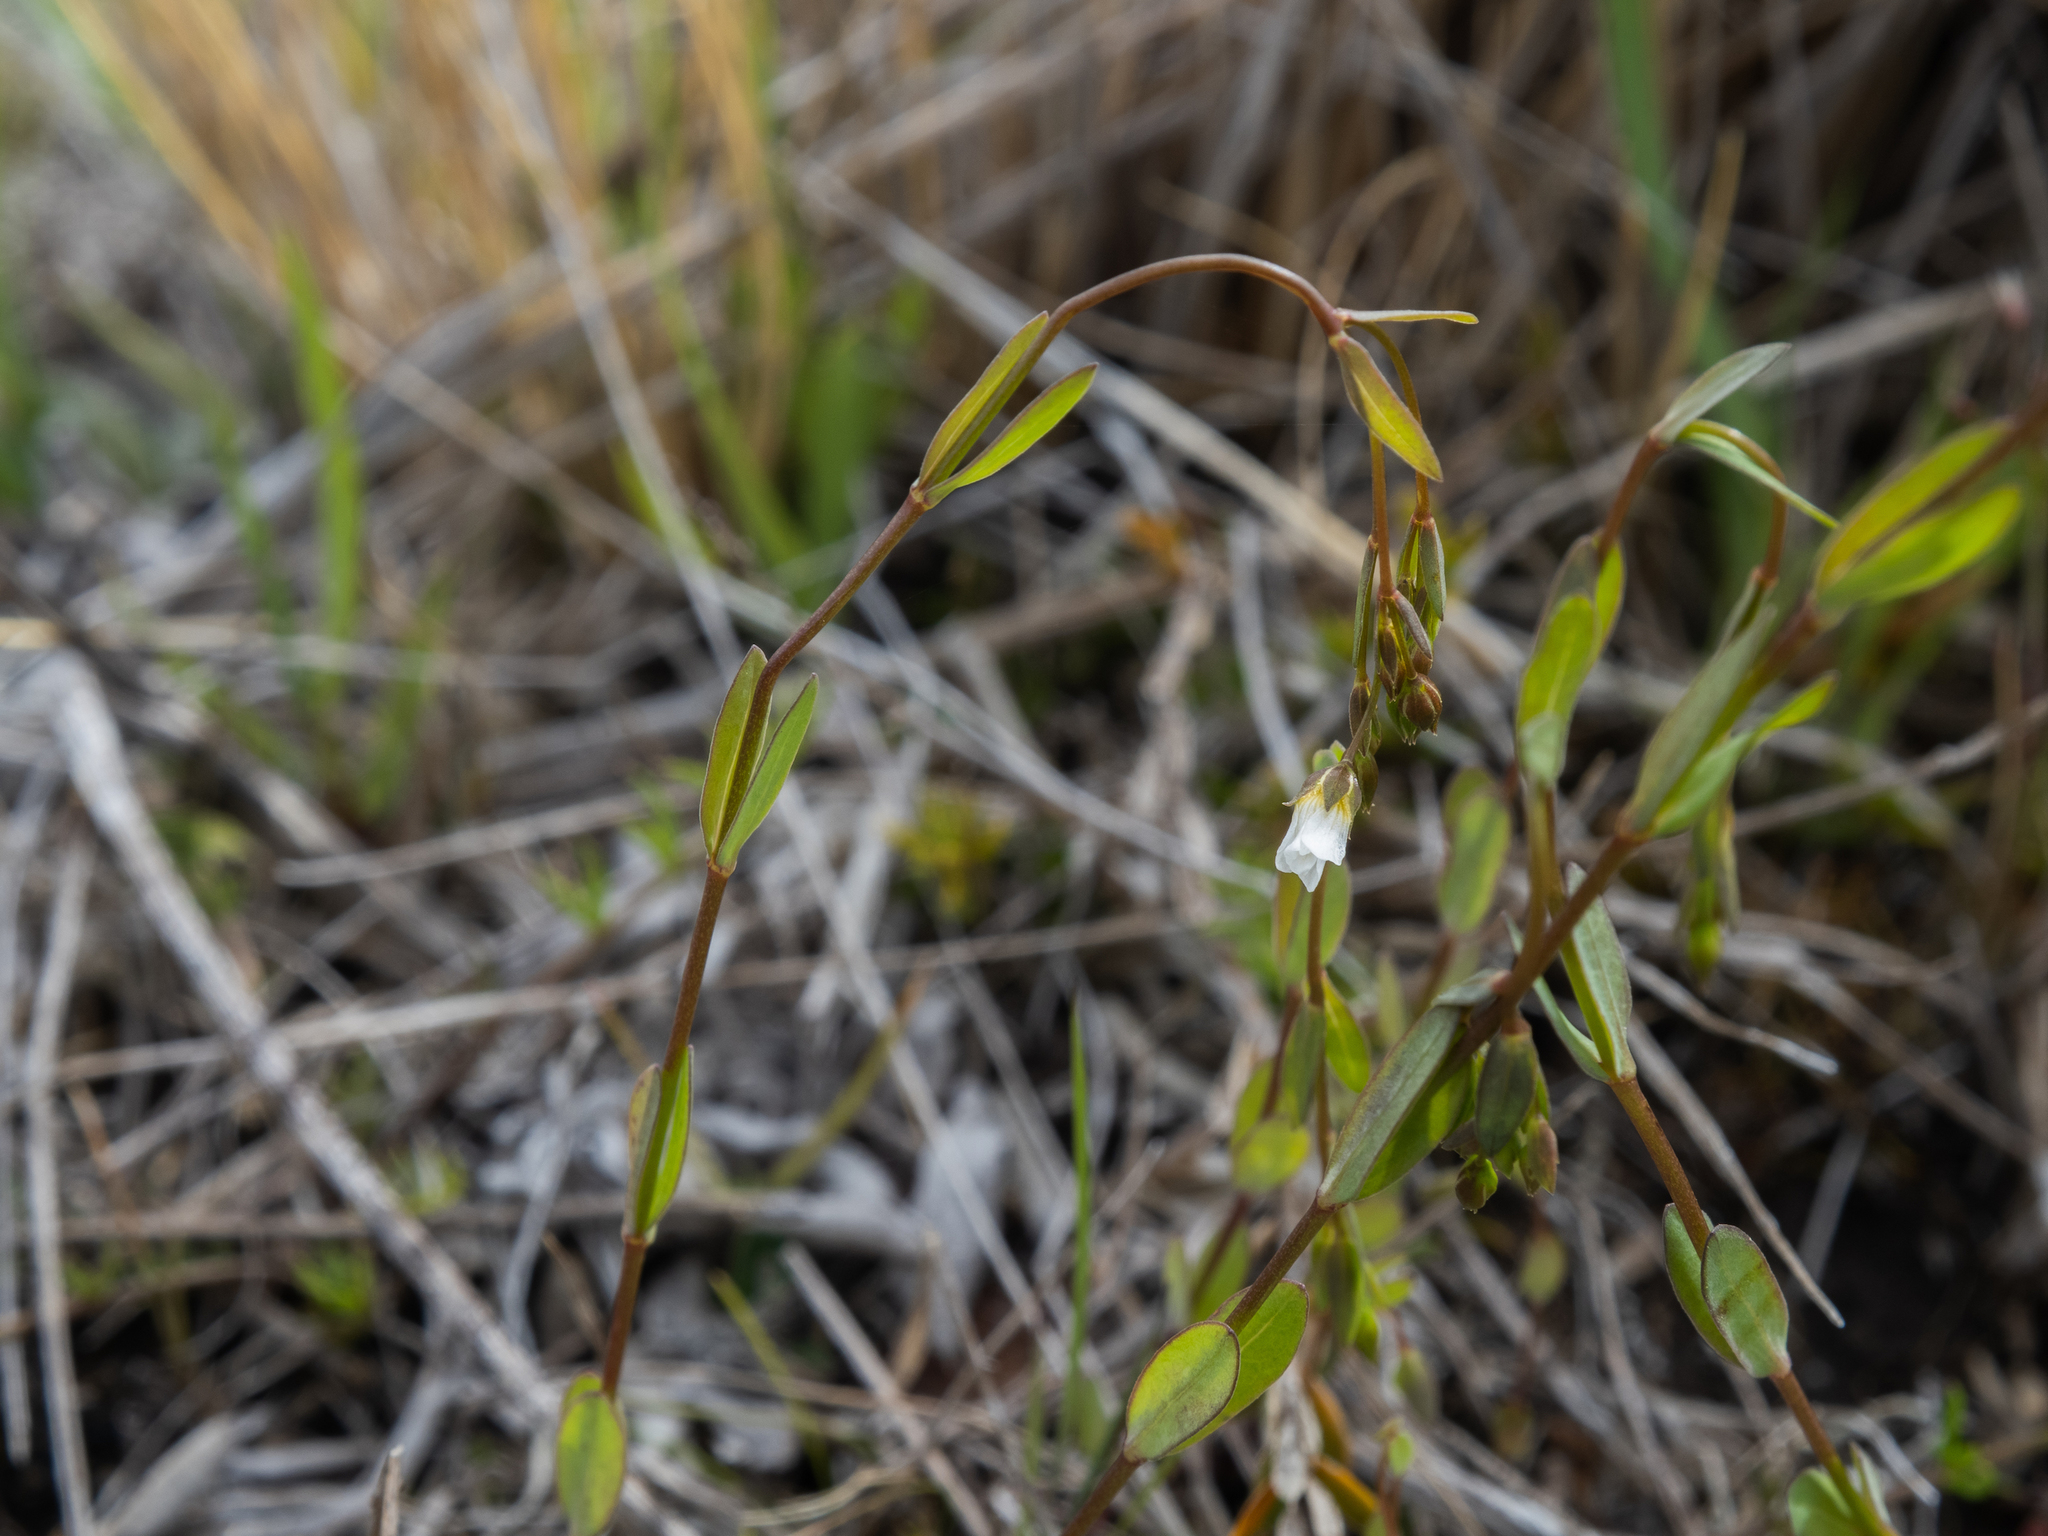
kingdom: Plantae
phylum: Tracheophyta
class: Magnoliopsida
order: Malpighiales
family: Linaceae
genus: Linum
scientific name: Linum catharticum
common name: Fairy flax
